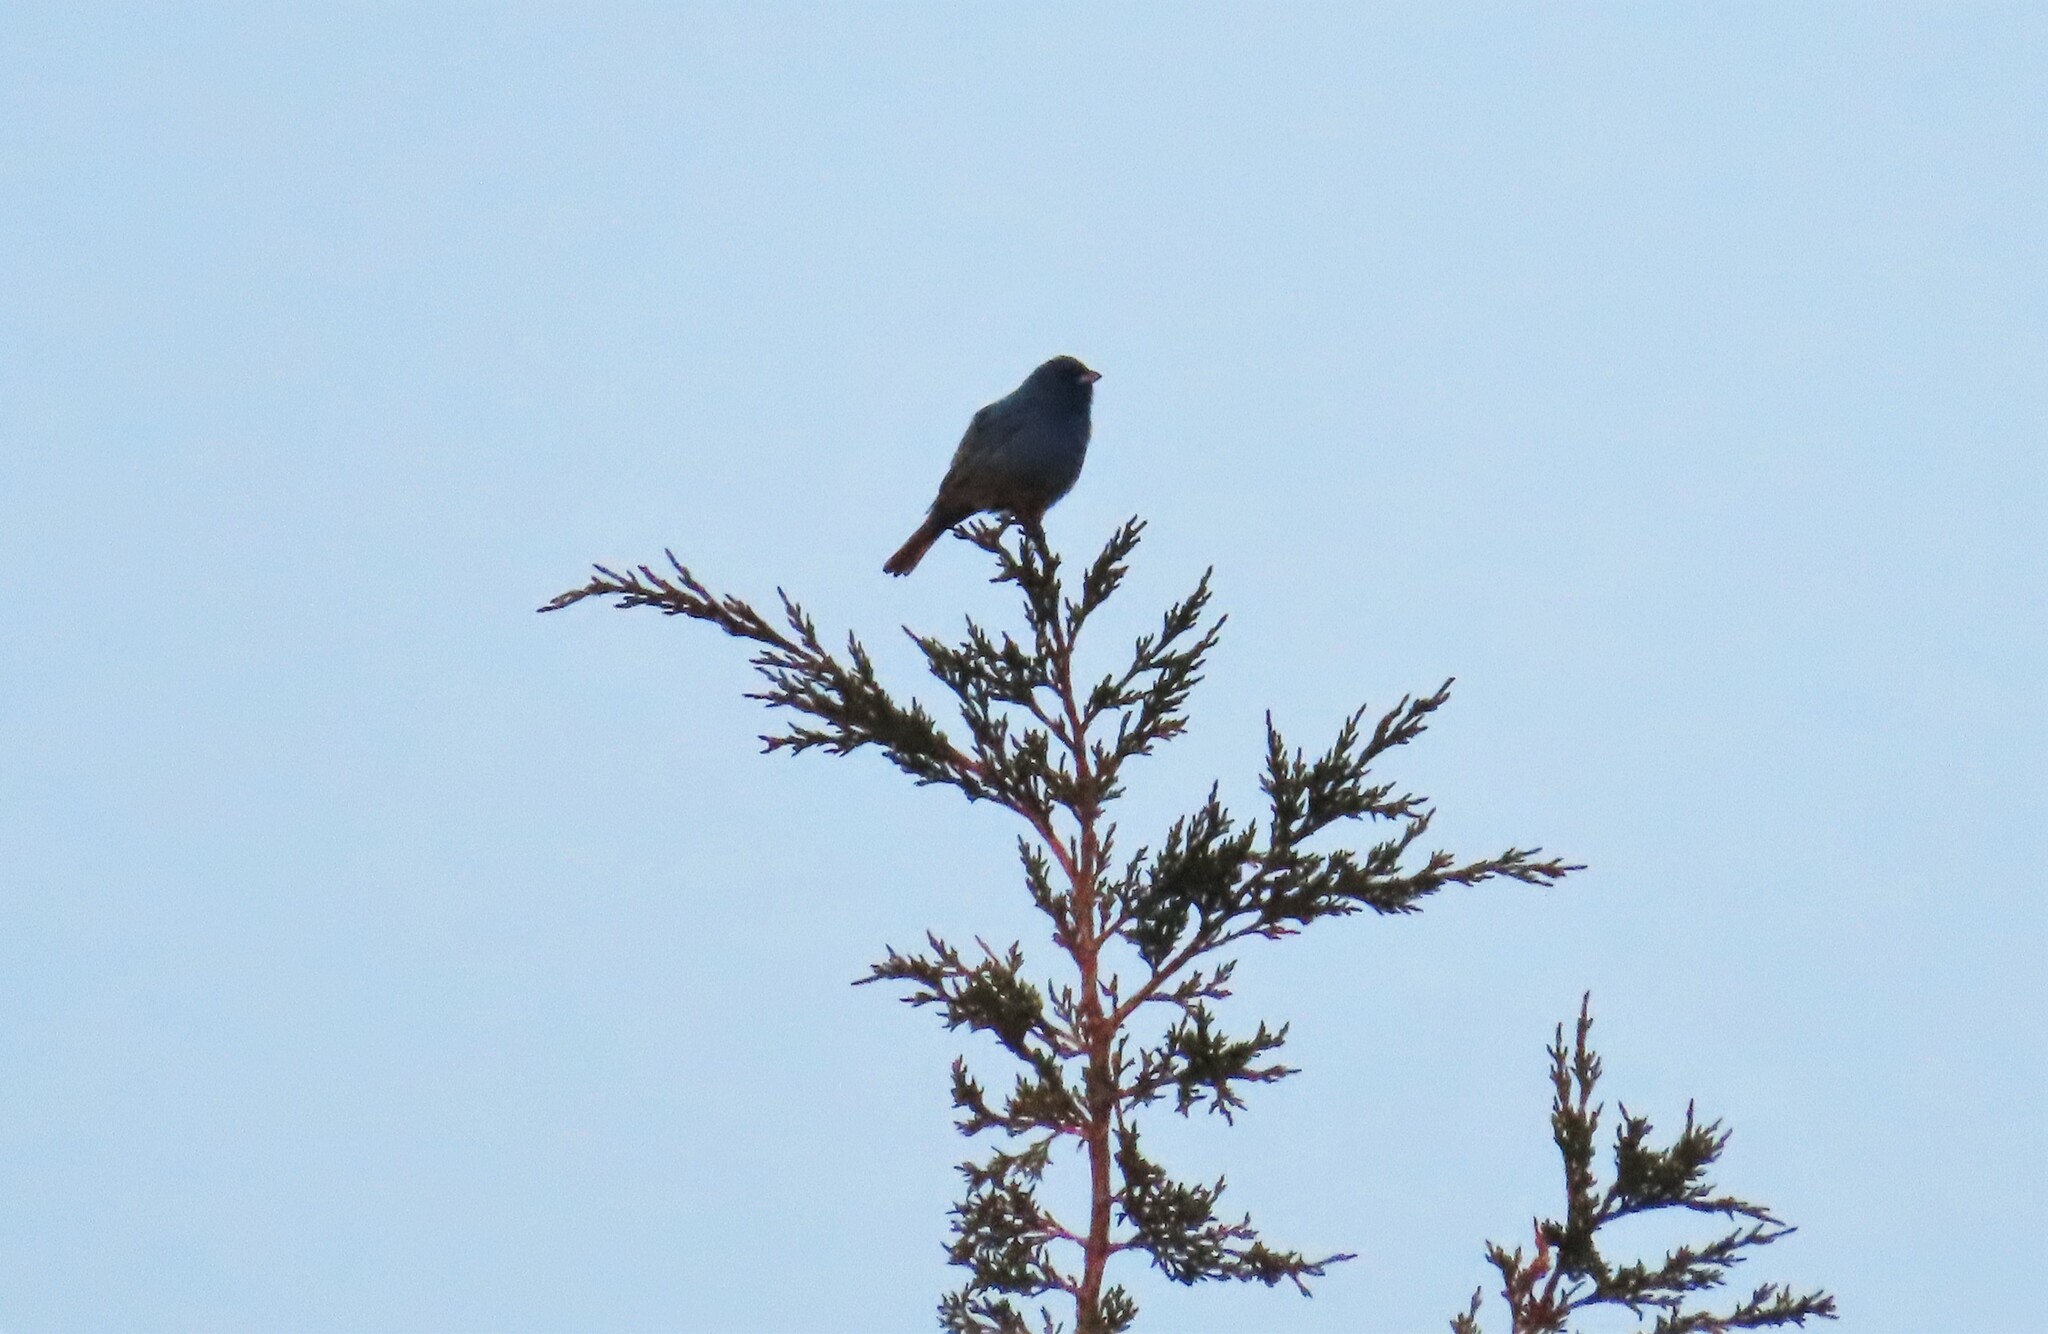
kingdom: Animalia
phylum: Chordata
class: Aves
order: Passeriformes
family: Cardinalidae
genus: Passerina
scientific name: Passerina cyanea
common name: Indigo bunting
